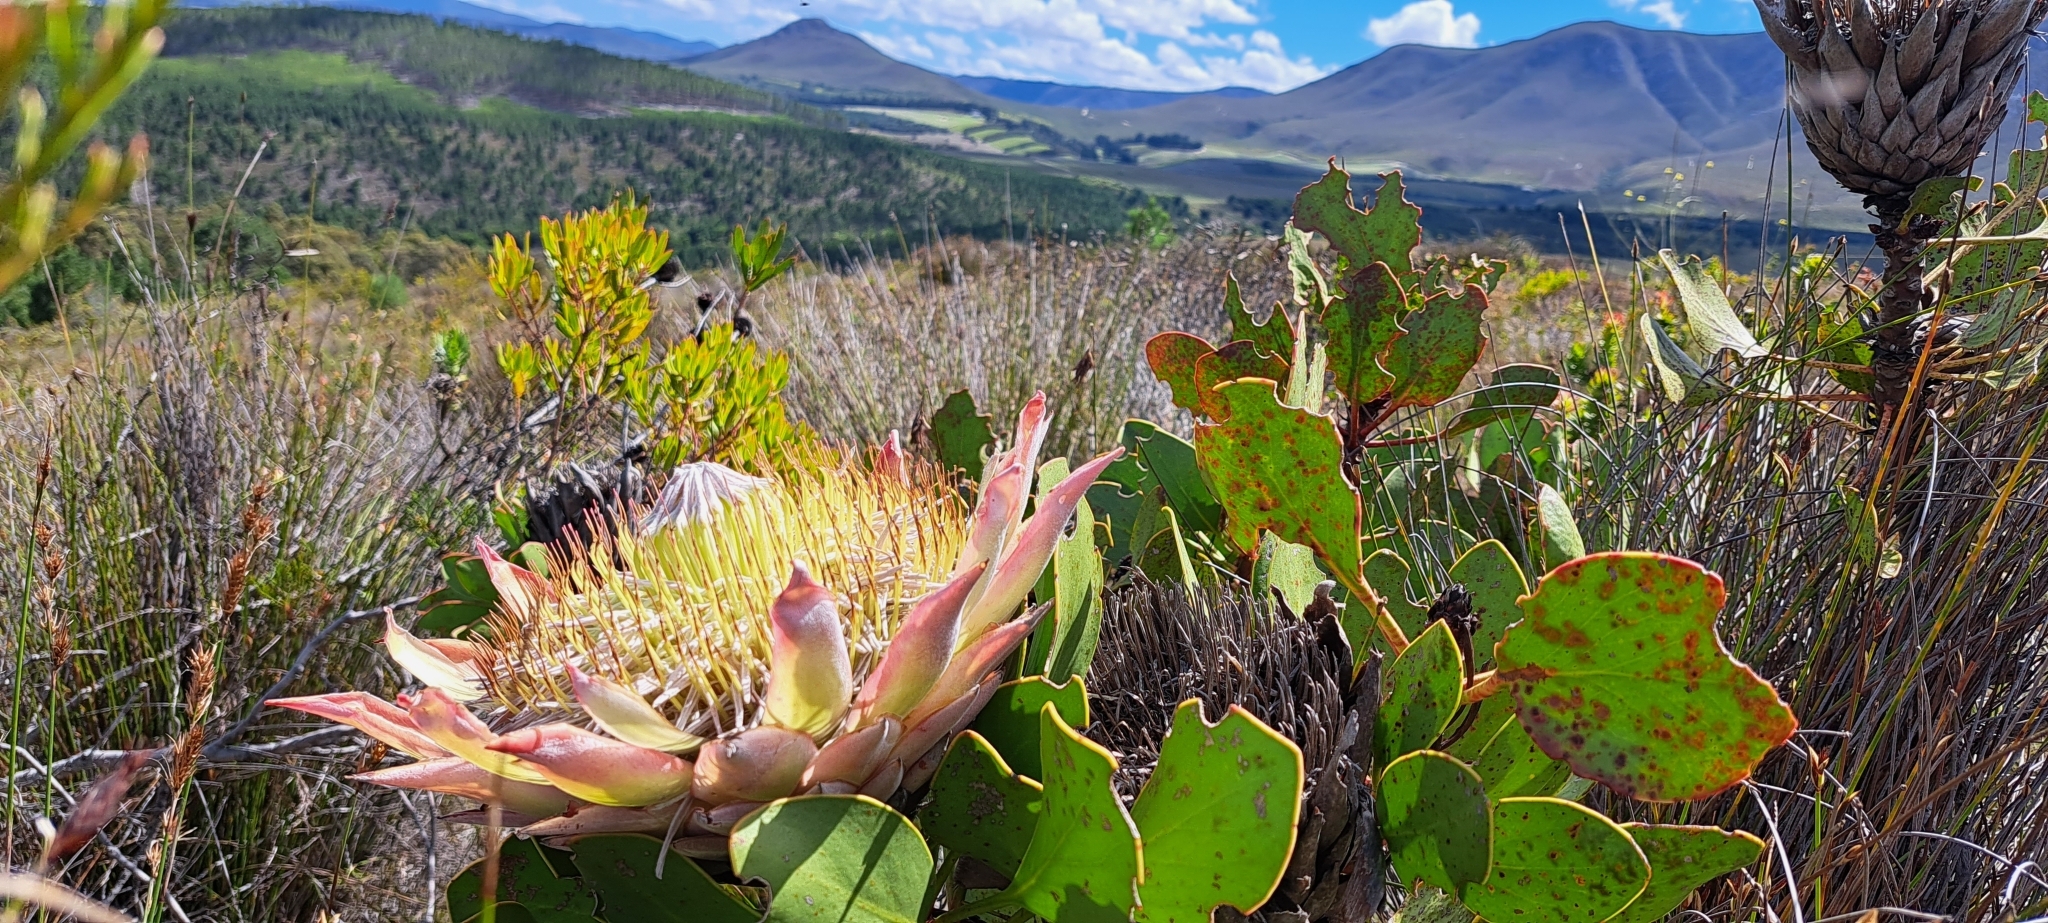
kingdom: Plantae
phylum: Tracheophyta
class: Magnoliopsida
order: Proteales
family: Proteaceae
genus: Protea
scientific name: Protea cynaroides
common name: King protea
